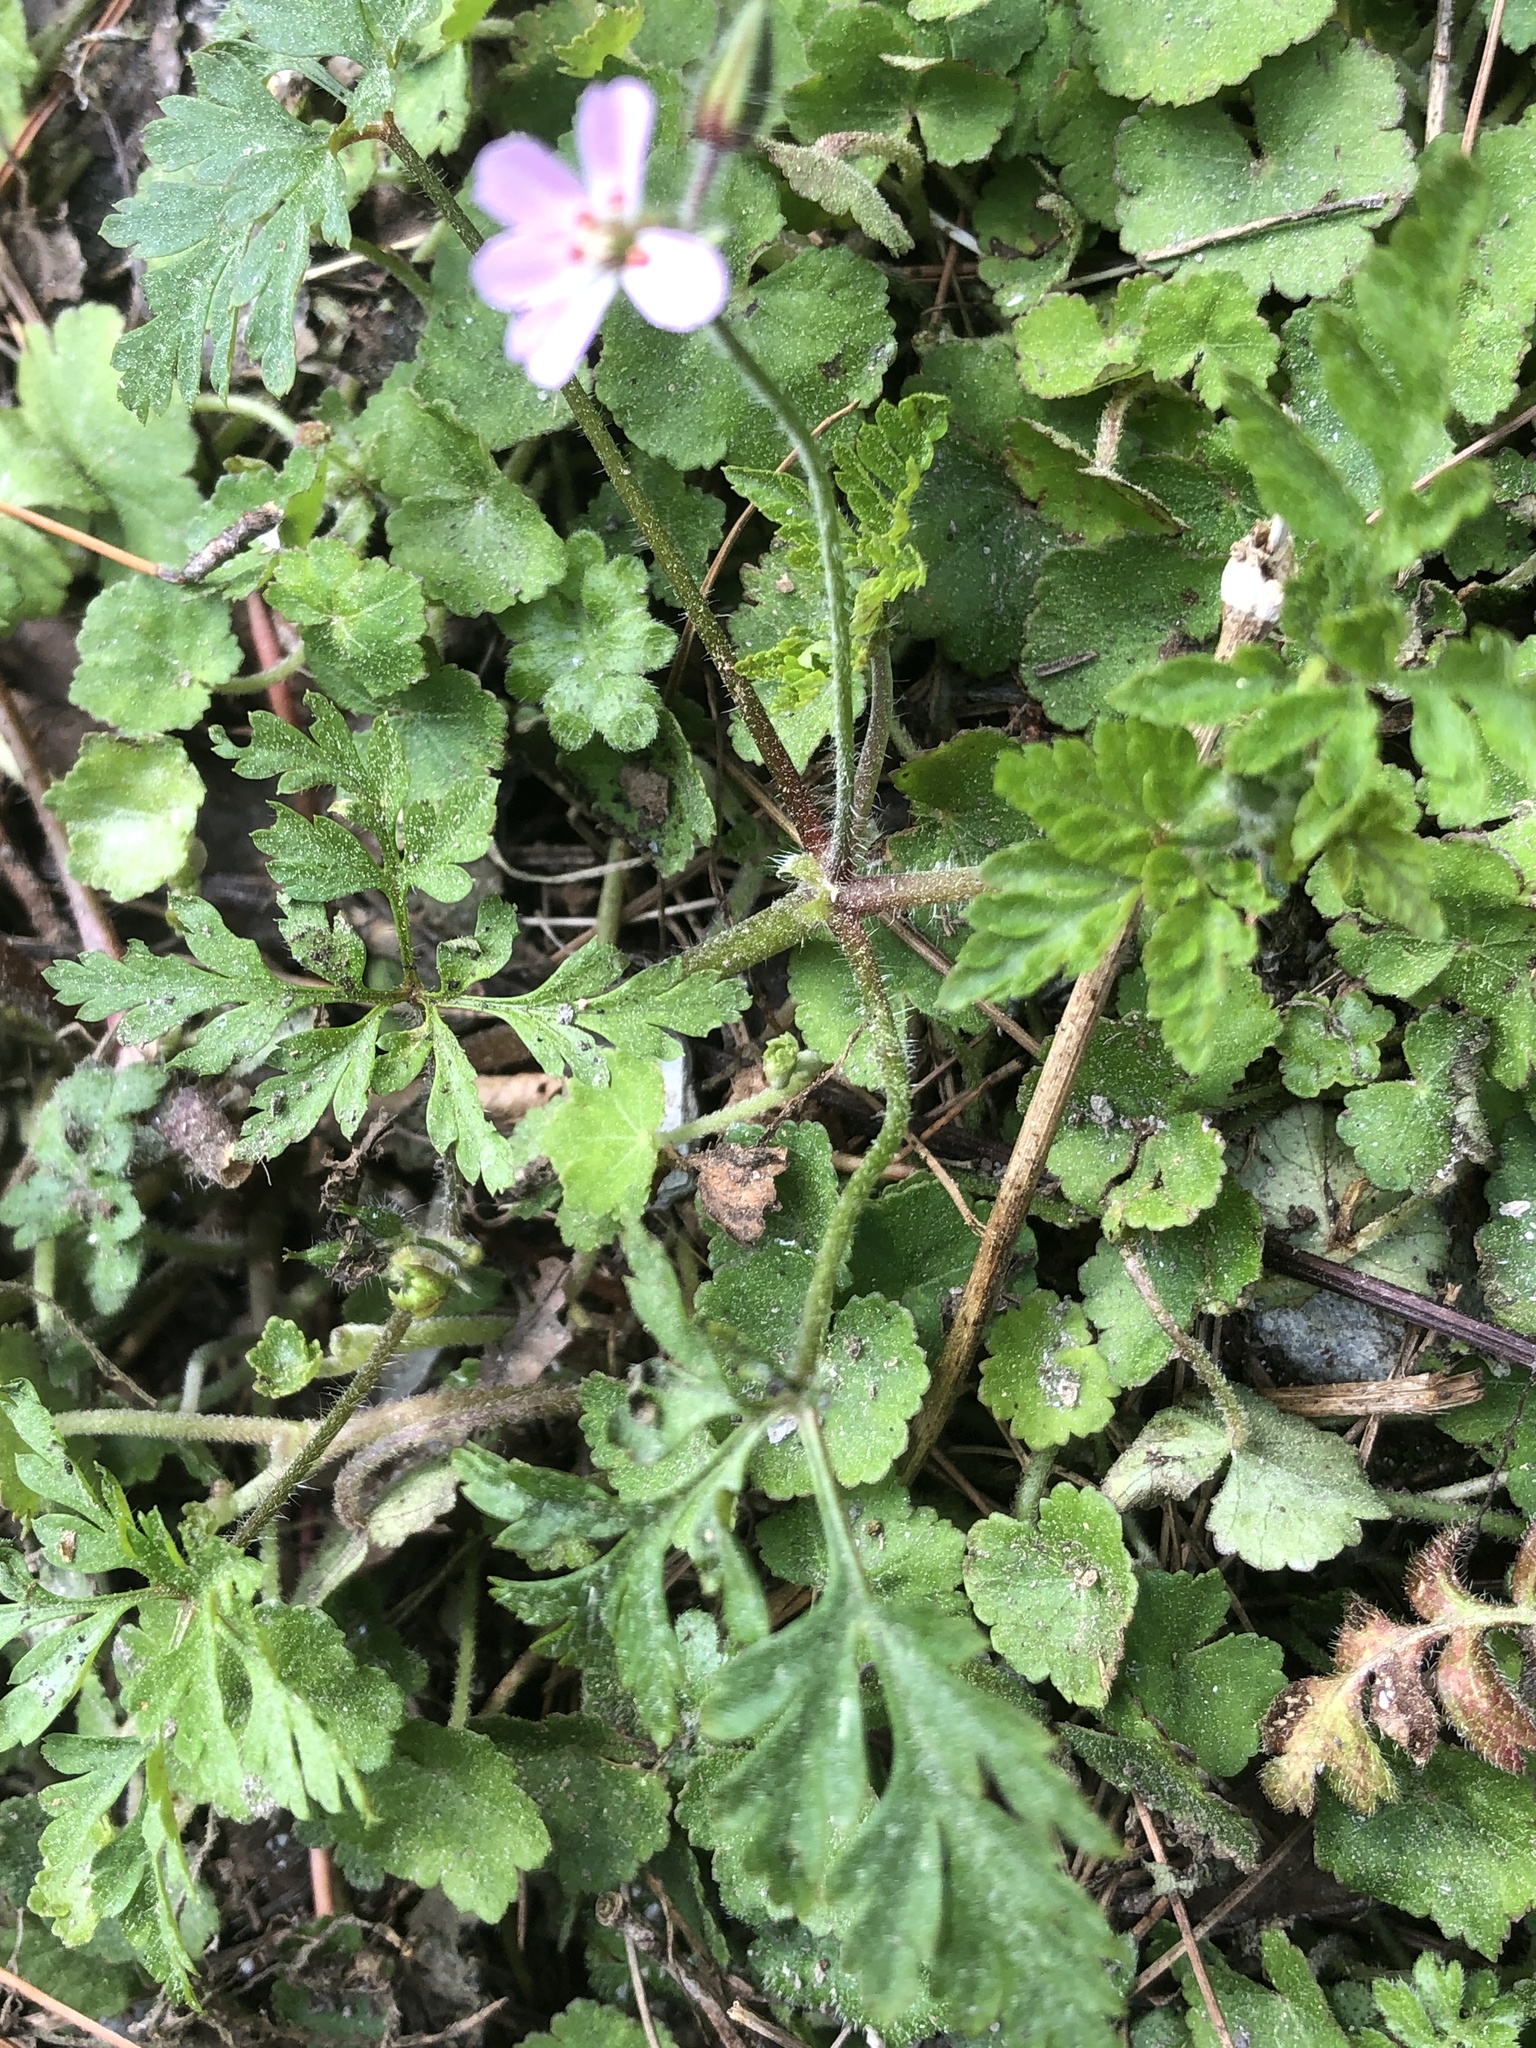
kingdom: Plantae
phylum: Tracheophyta
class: Magnoliopsida
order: Geraniales
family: Geraniaceae
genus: Geranium
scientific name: Geranium robertianum
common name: Herb-robert
